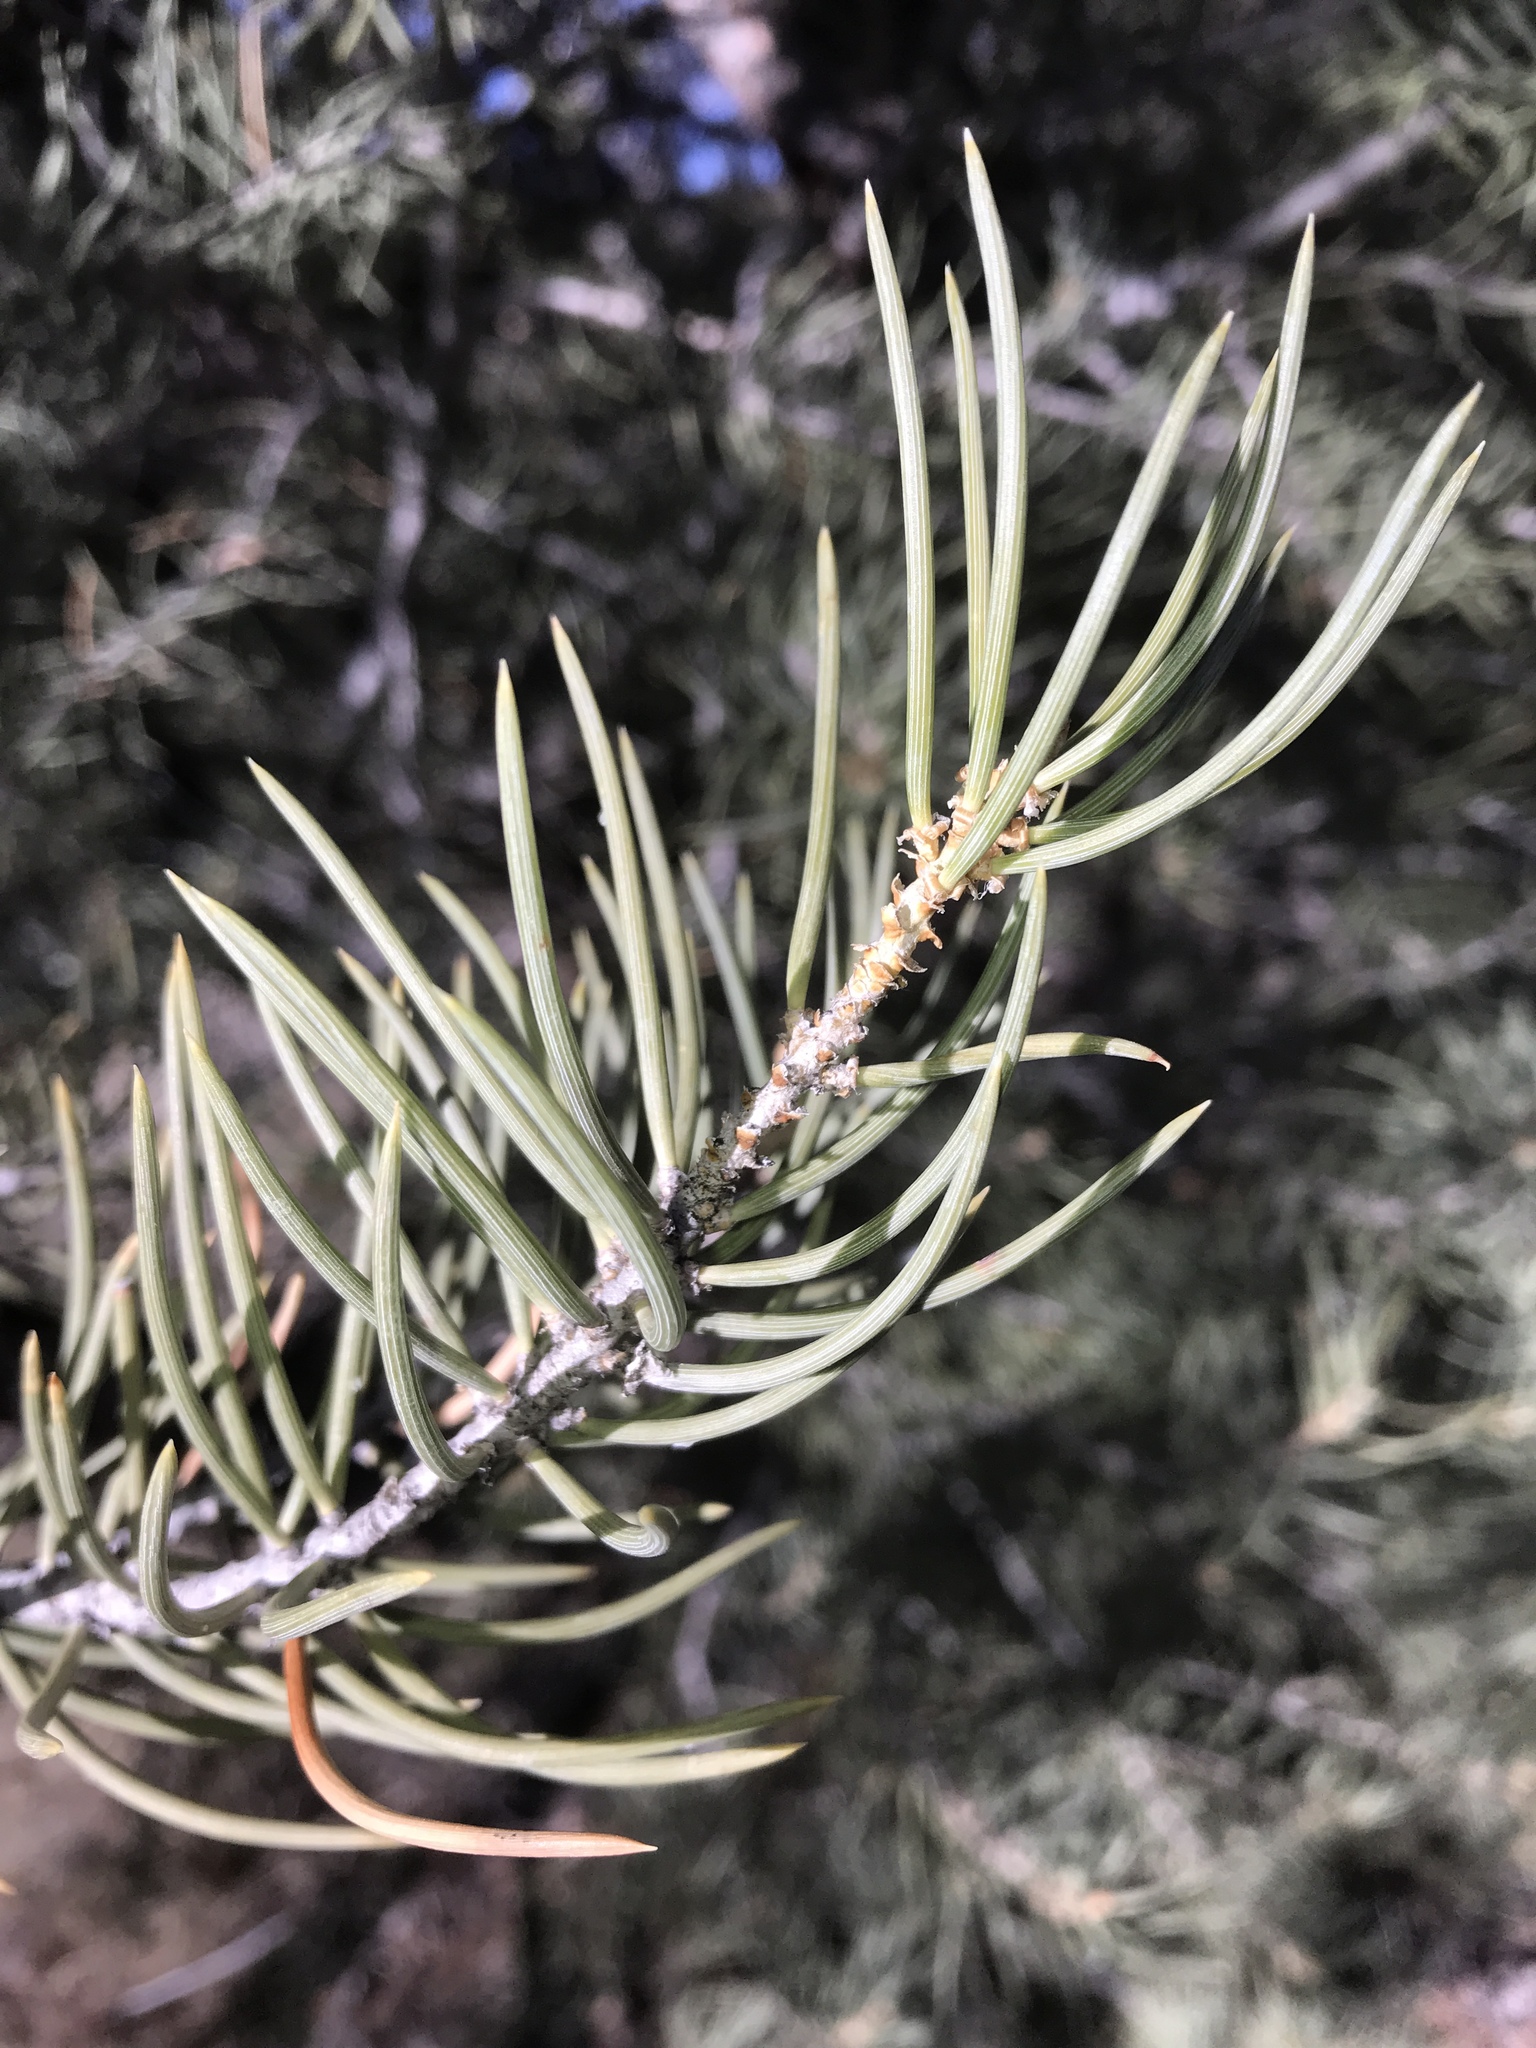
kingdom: Plantae
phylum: Tracheophyta
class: Pinopsida
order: Pinales
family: Pinaceae
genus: Pinus
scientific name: Pinus monophylla
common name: One-leaved nut pine
